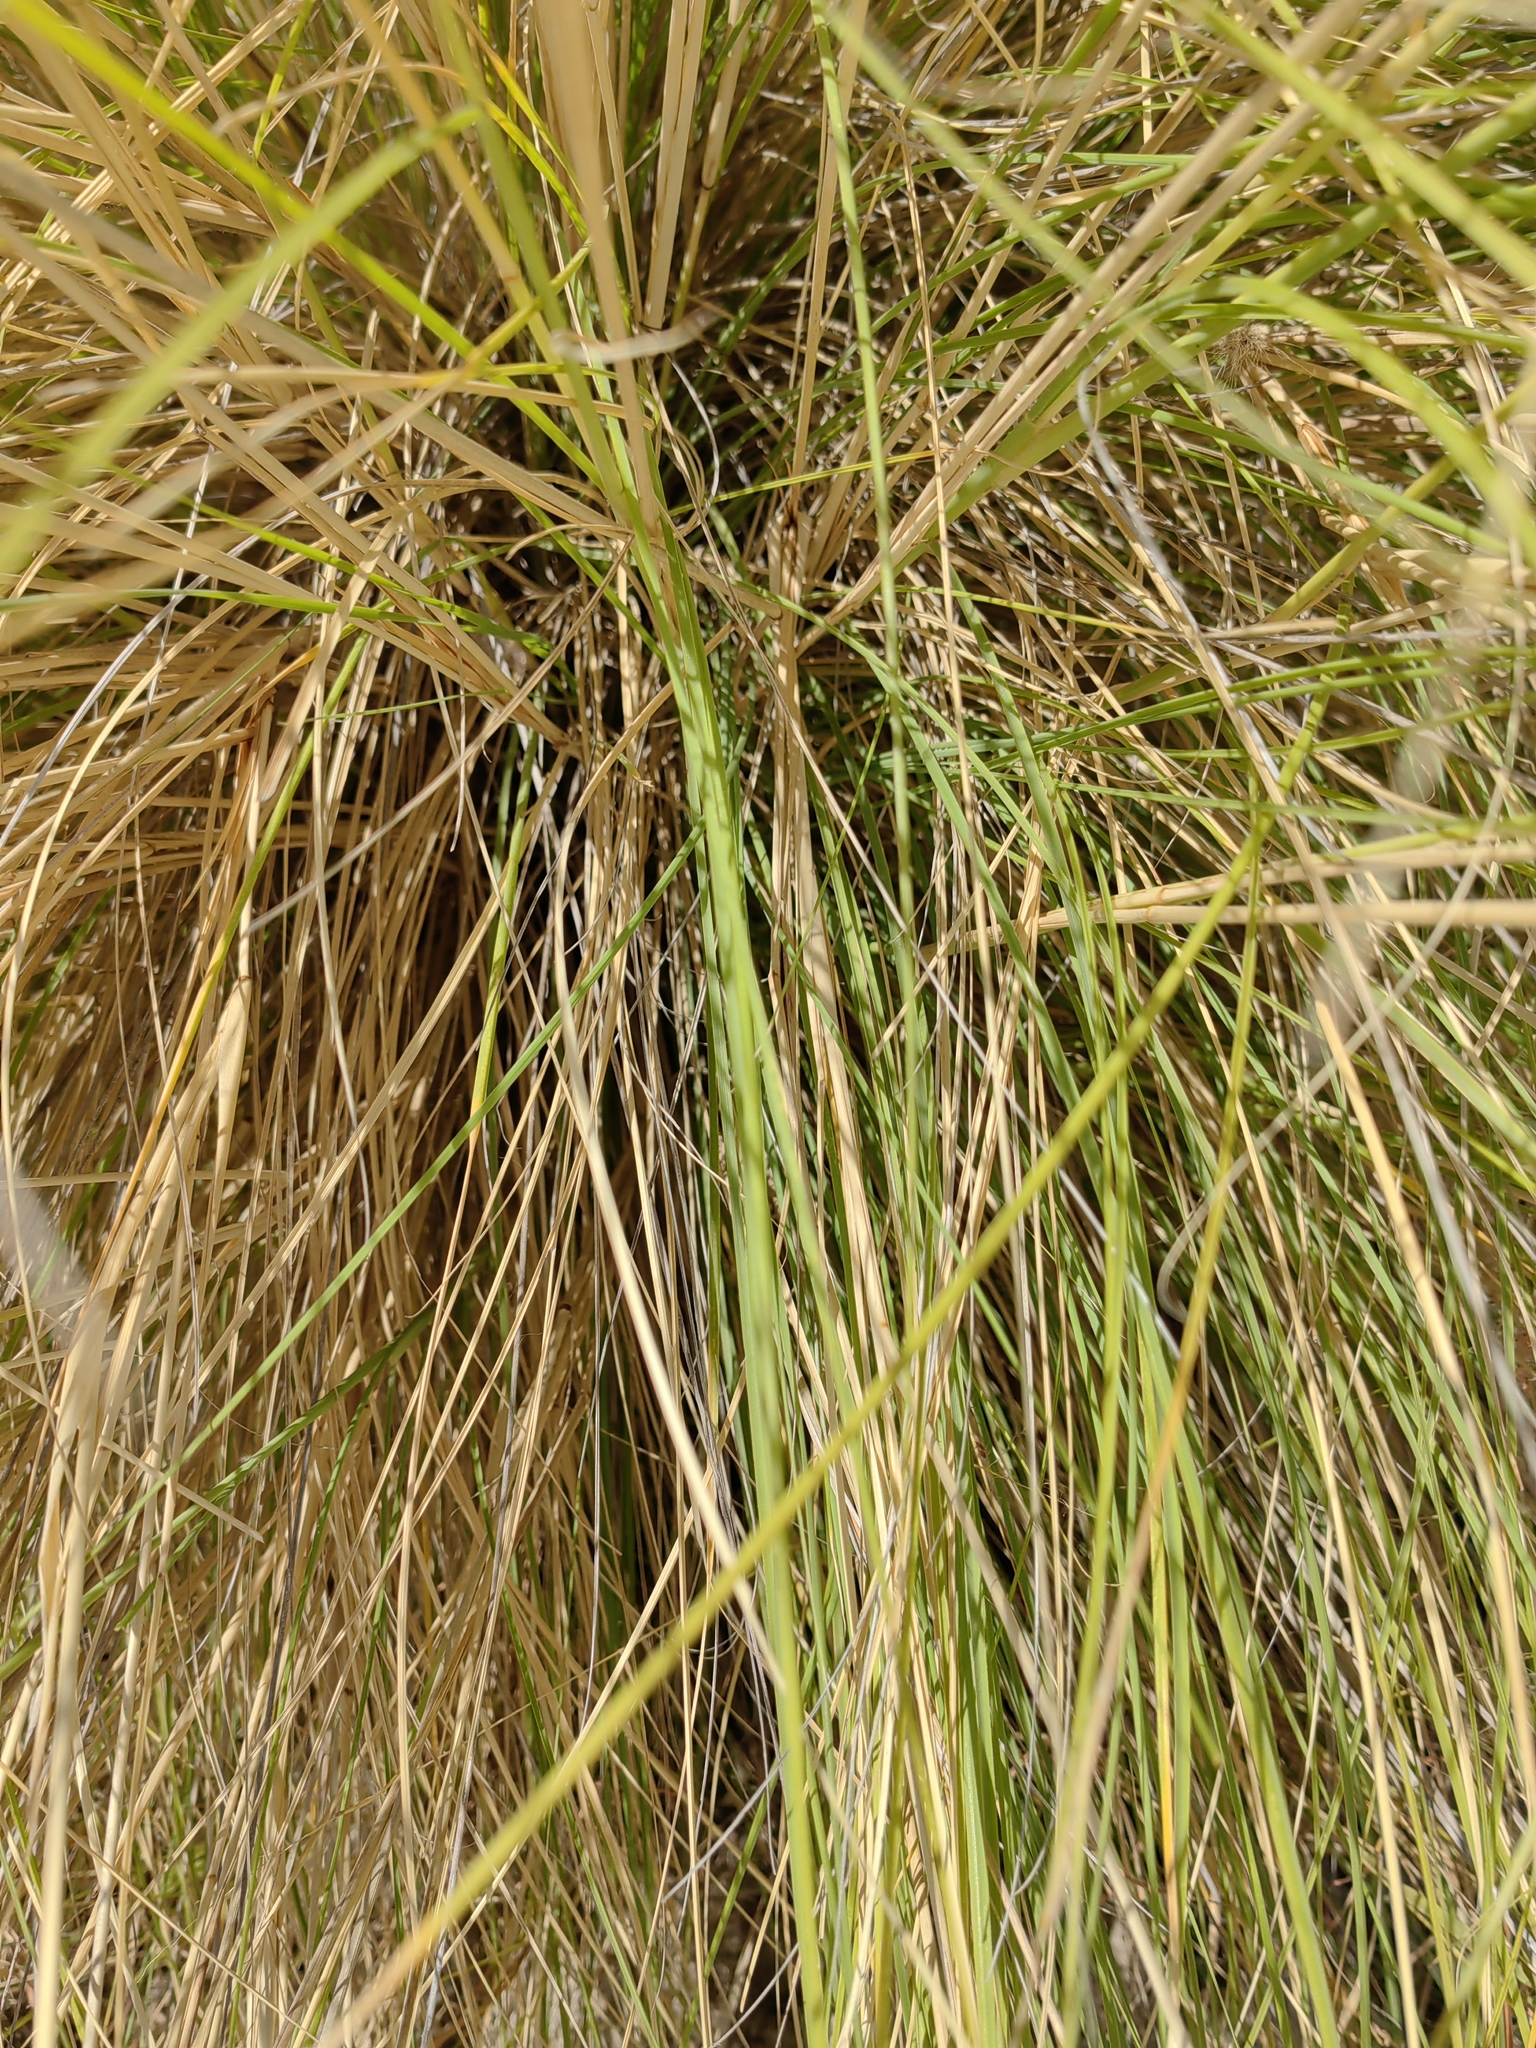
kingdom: Plantae
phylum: Tracheophyta
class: Liliopsida
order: Poales
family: Poaceae
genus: Cenchrus
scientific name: Cenchrus setaceus
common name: Crimson fountaingrass
